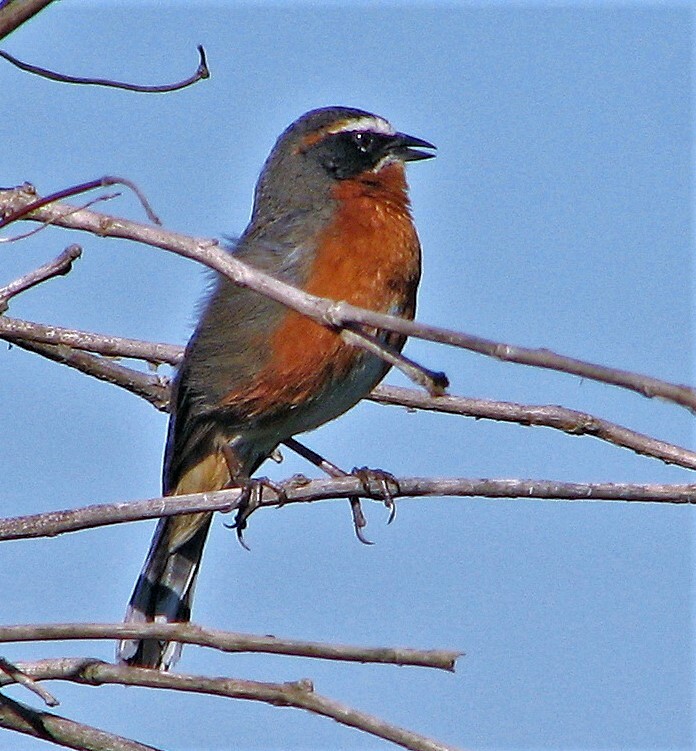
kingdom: Animalia
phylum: Chordata
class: Aves
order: Passeriformes
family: Thraupidae
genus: Poospiza
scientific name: Poospiza nigrorufa
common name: Black-and-rufous warbling finch
